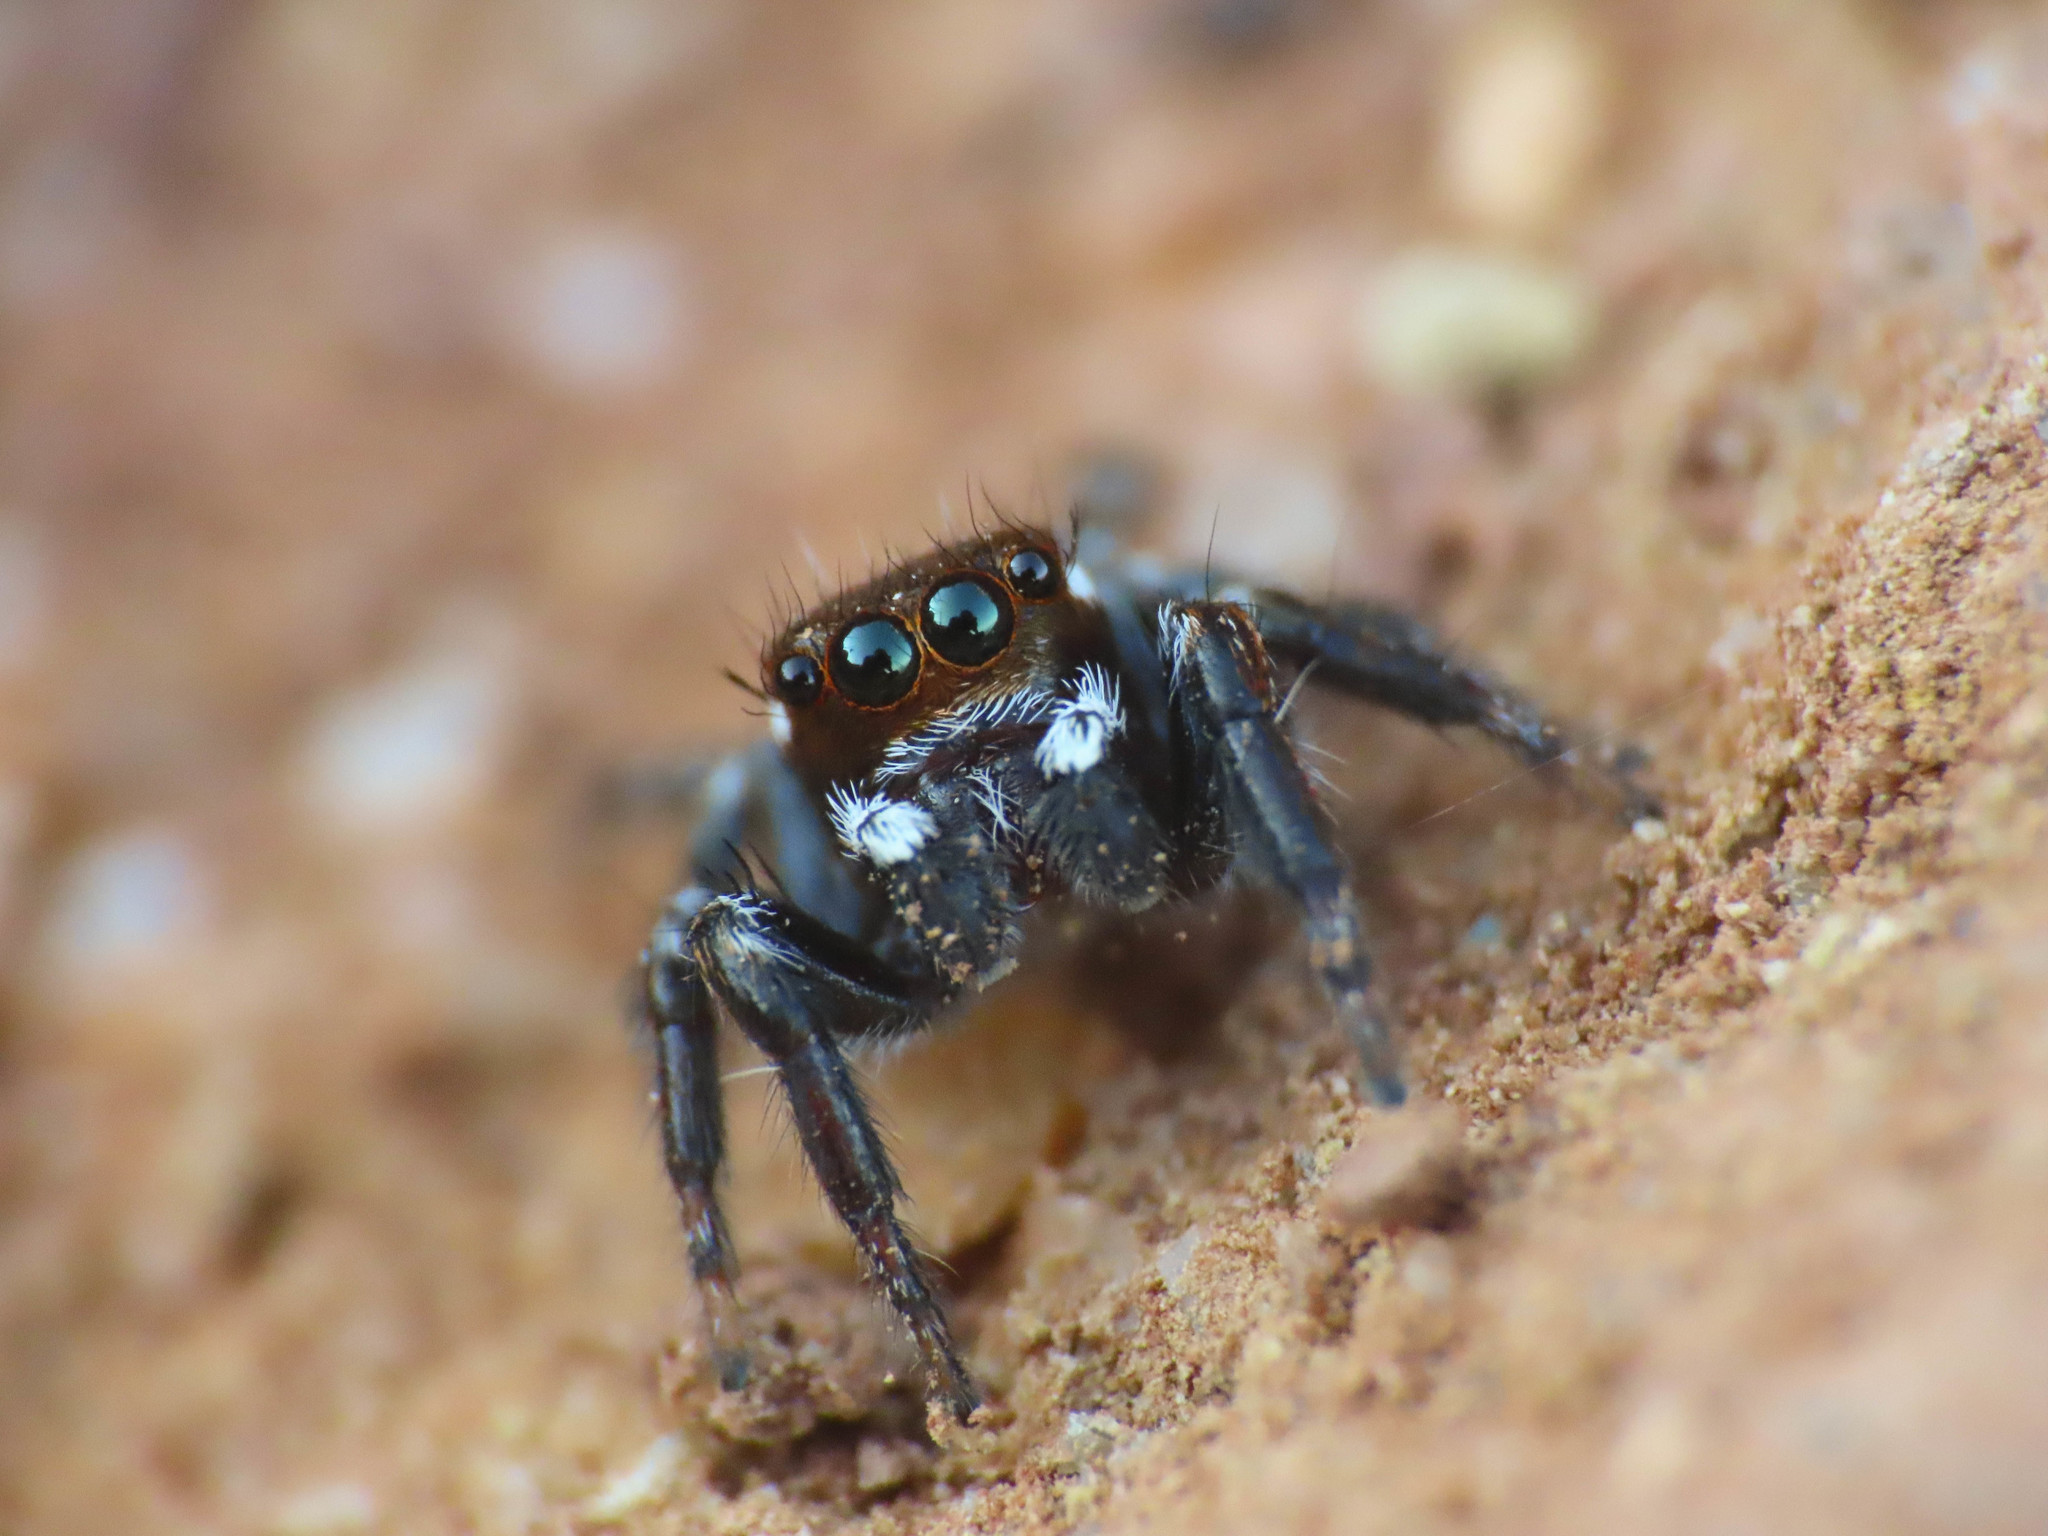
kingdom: Animalia
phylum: Arthropoda
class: Arachnida
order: Araneae
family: Salticidae
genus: Evarcha
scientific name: Evarcha jucunda
